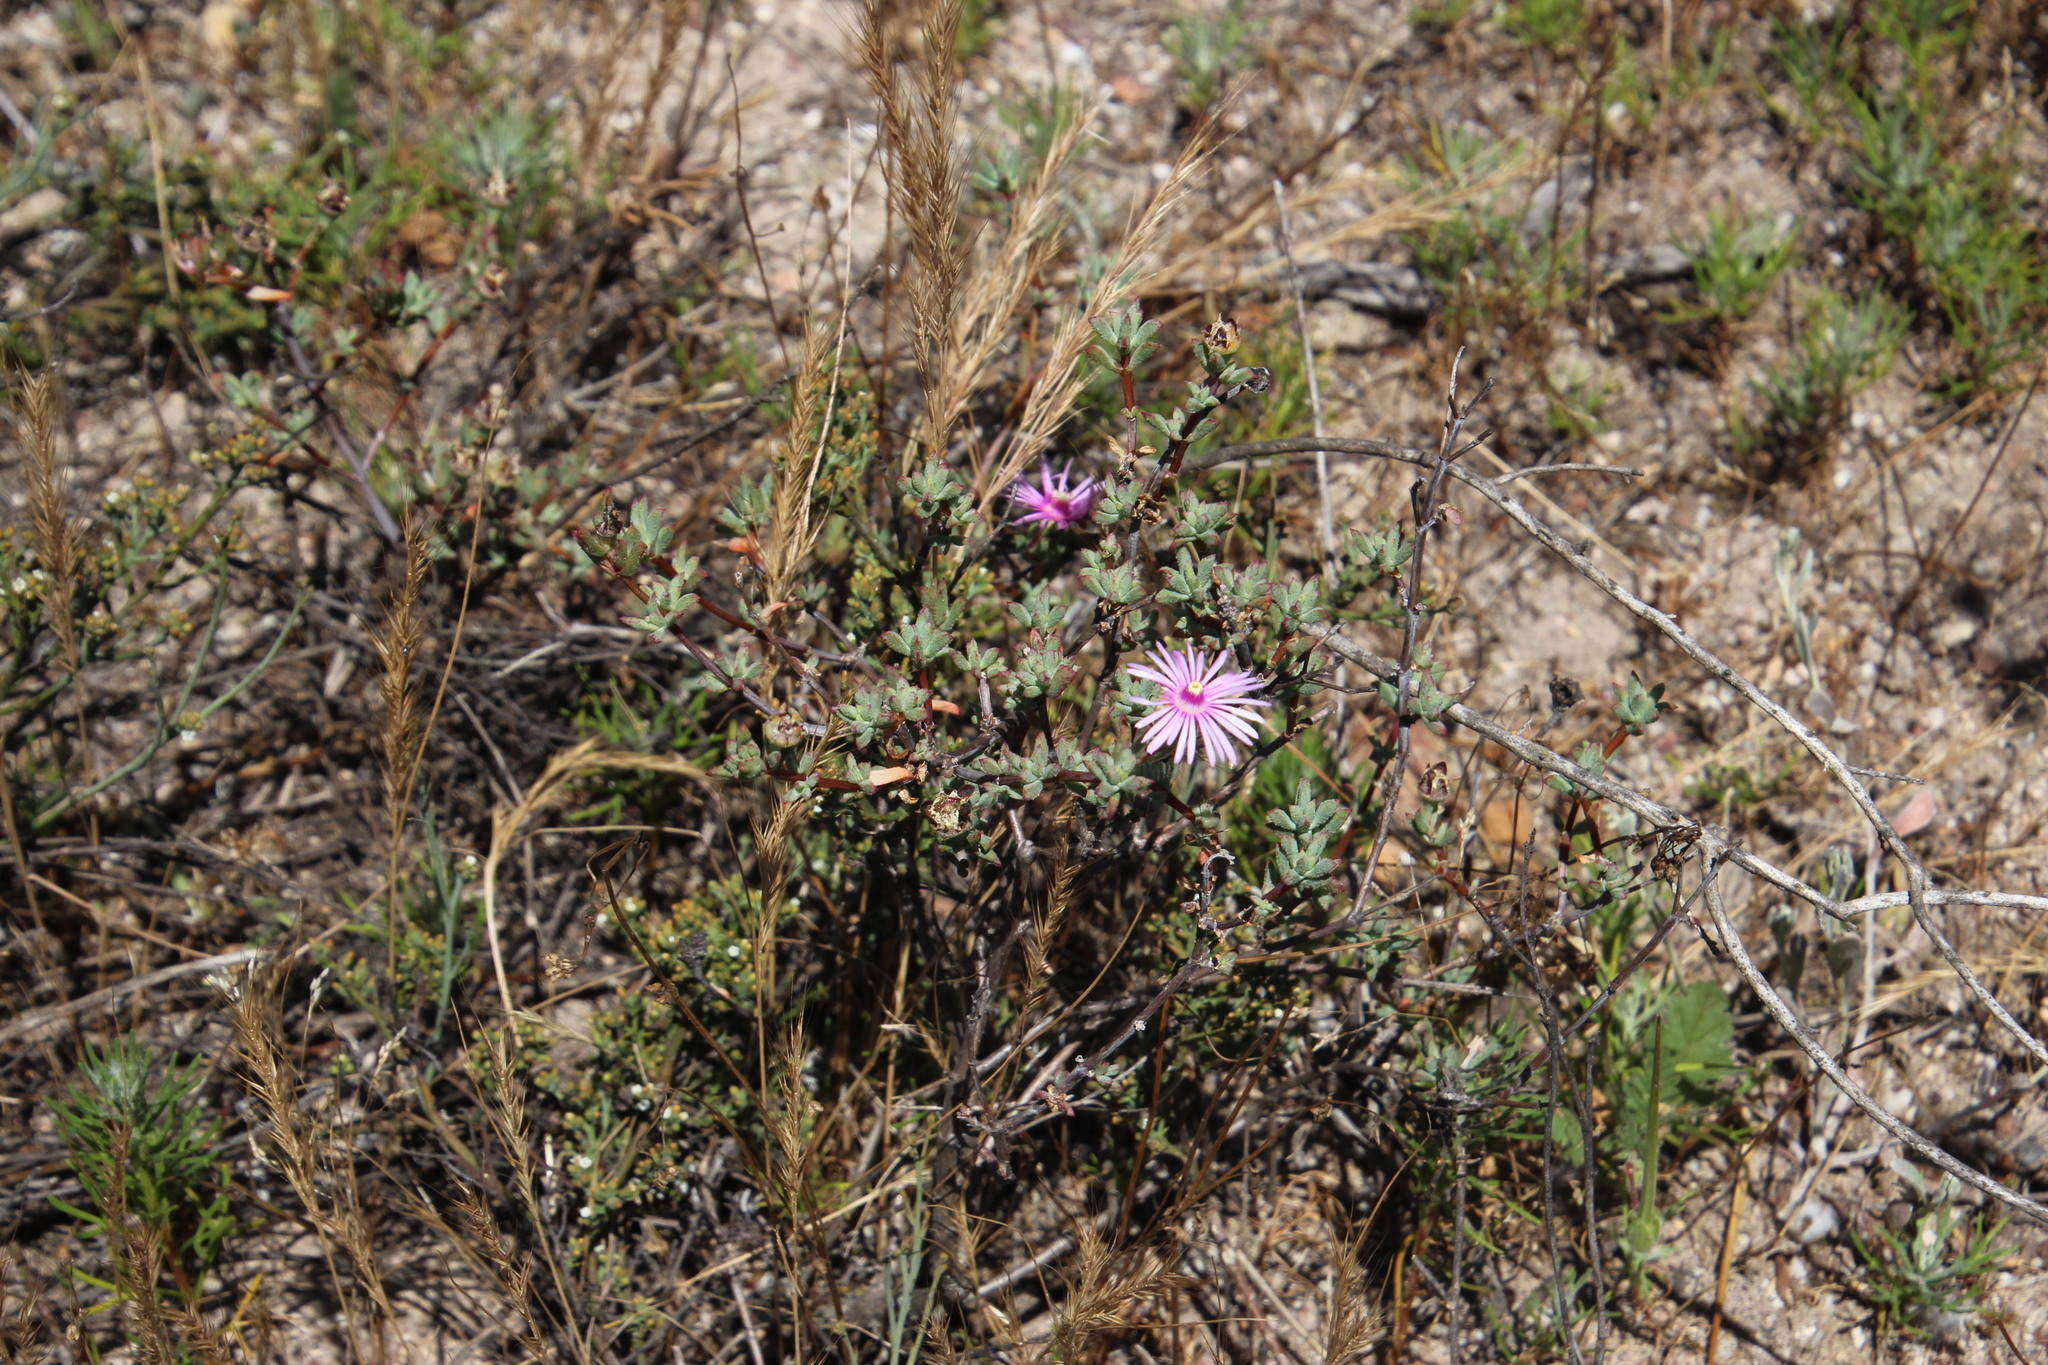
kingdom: Plantae
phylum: Tracheophyta
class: Magnoliopsida
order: Caryophyllales
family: Aizoaceae
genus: Lampranthus
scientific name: Lampranthus leptaleon
